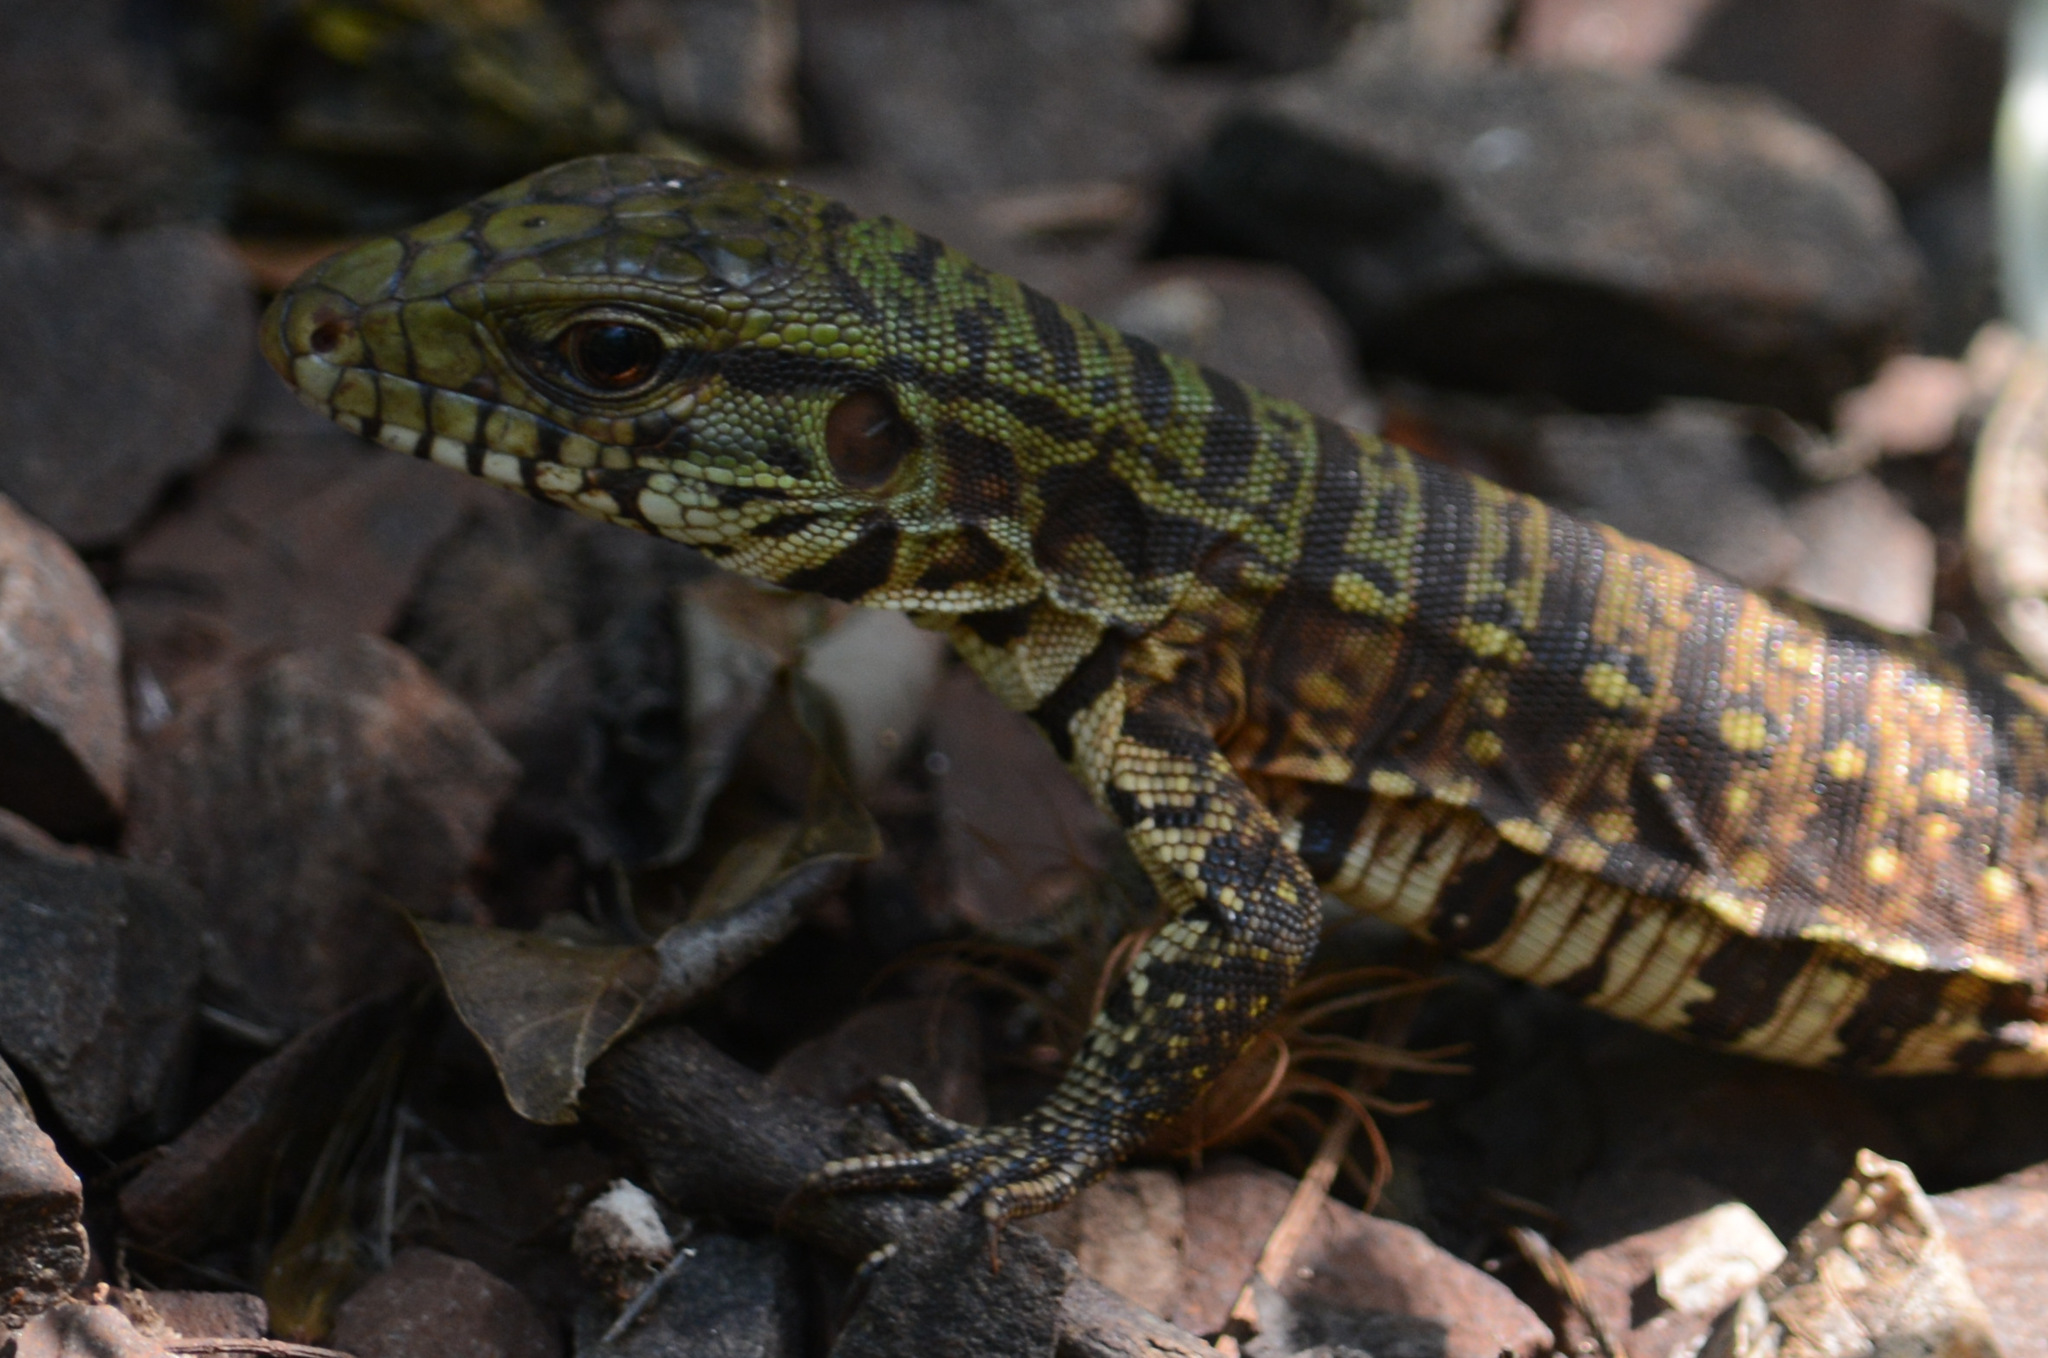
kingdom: Animalia
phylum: Chordata
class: Squamata
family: Teiidae
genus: Salvator
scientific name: Salvator merianae
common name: Argentine black and white tegu
